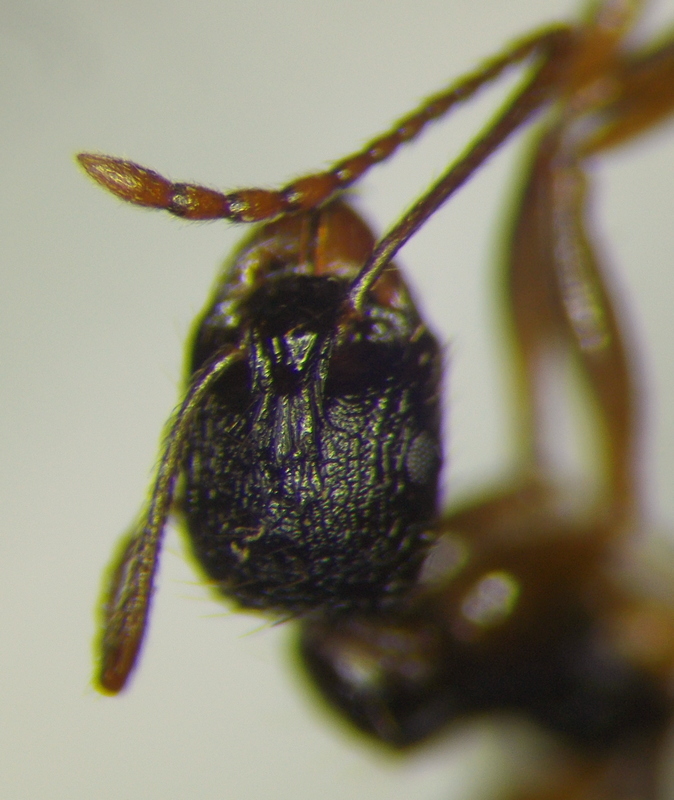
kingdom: Animalia
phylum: Arthropoda
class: Insecta
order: Hymenoptera
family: Formicidae
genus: Aphaenogaster
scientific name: Aphaenogaster
